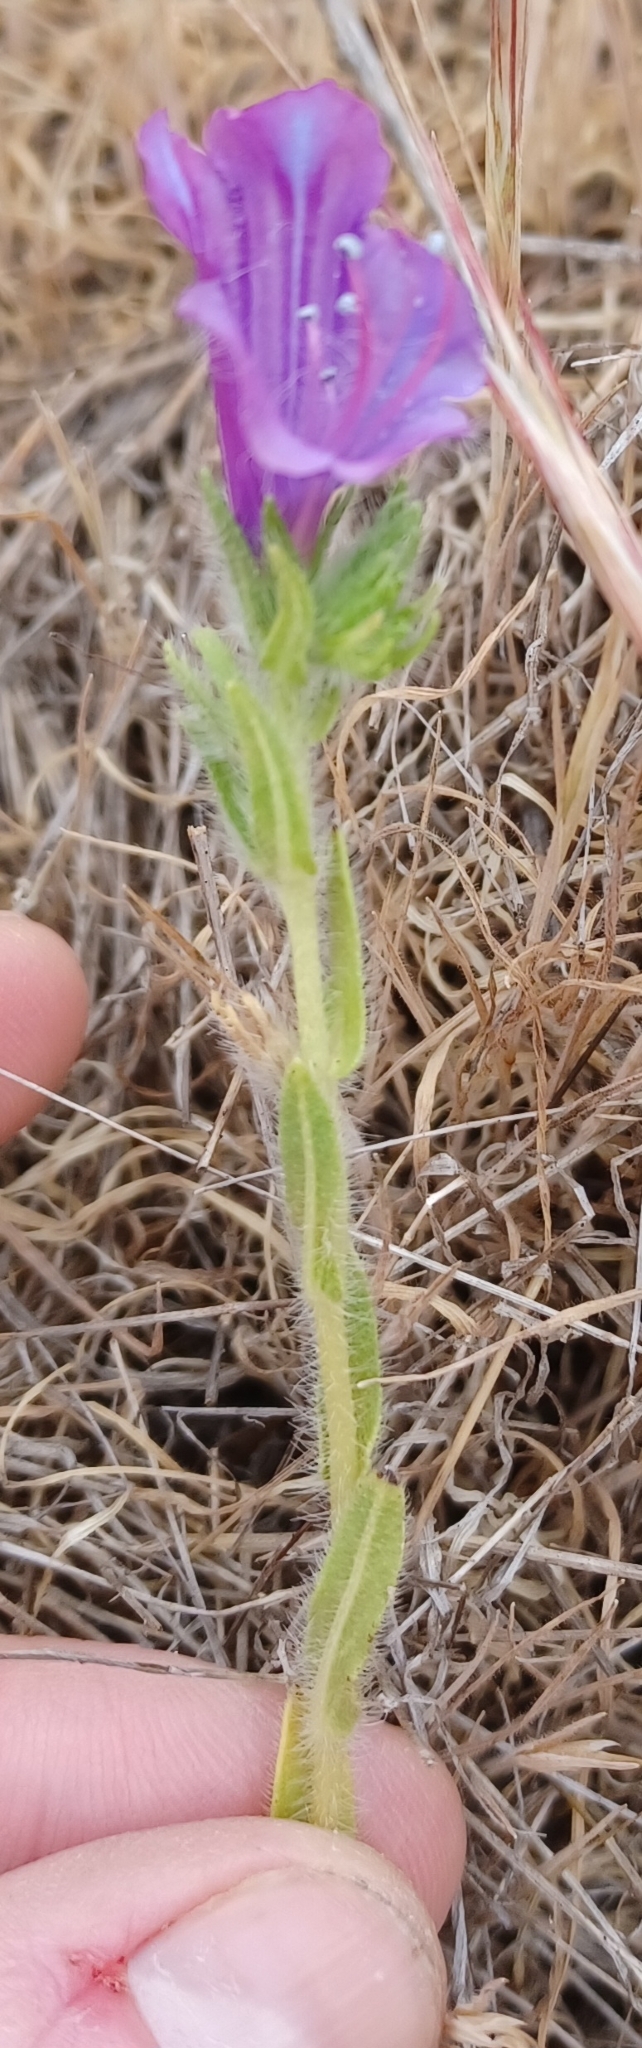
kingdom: Plantae
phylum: Tracheophyta
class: Magnoliopsida
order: Boraginales
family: Boraginaceae
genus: Echium
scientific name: Echium plantagineum
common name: Purple viper's-bugloss
